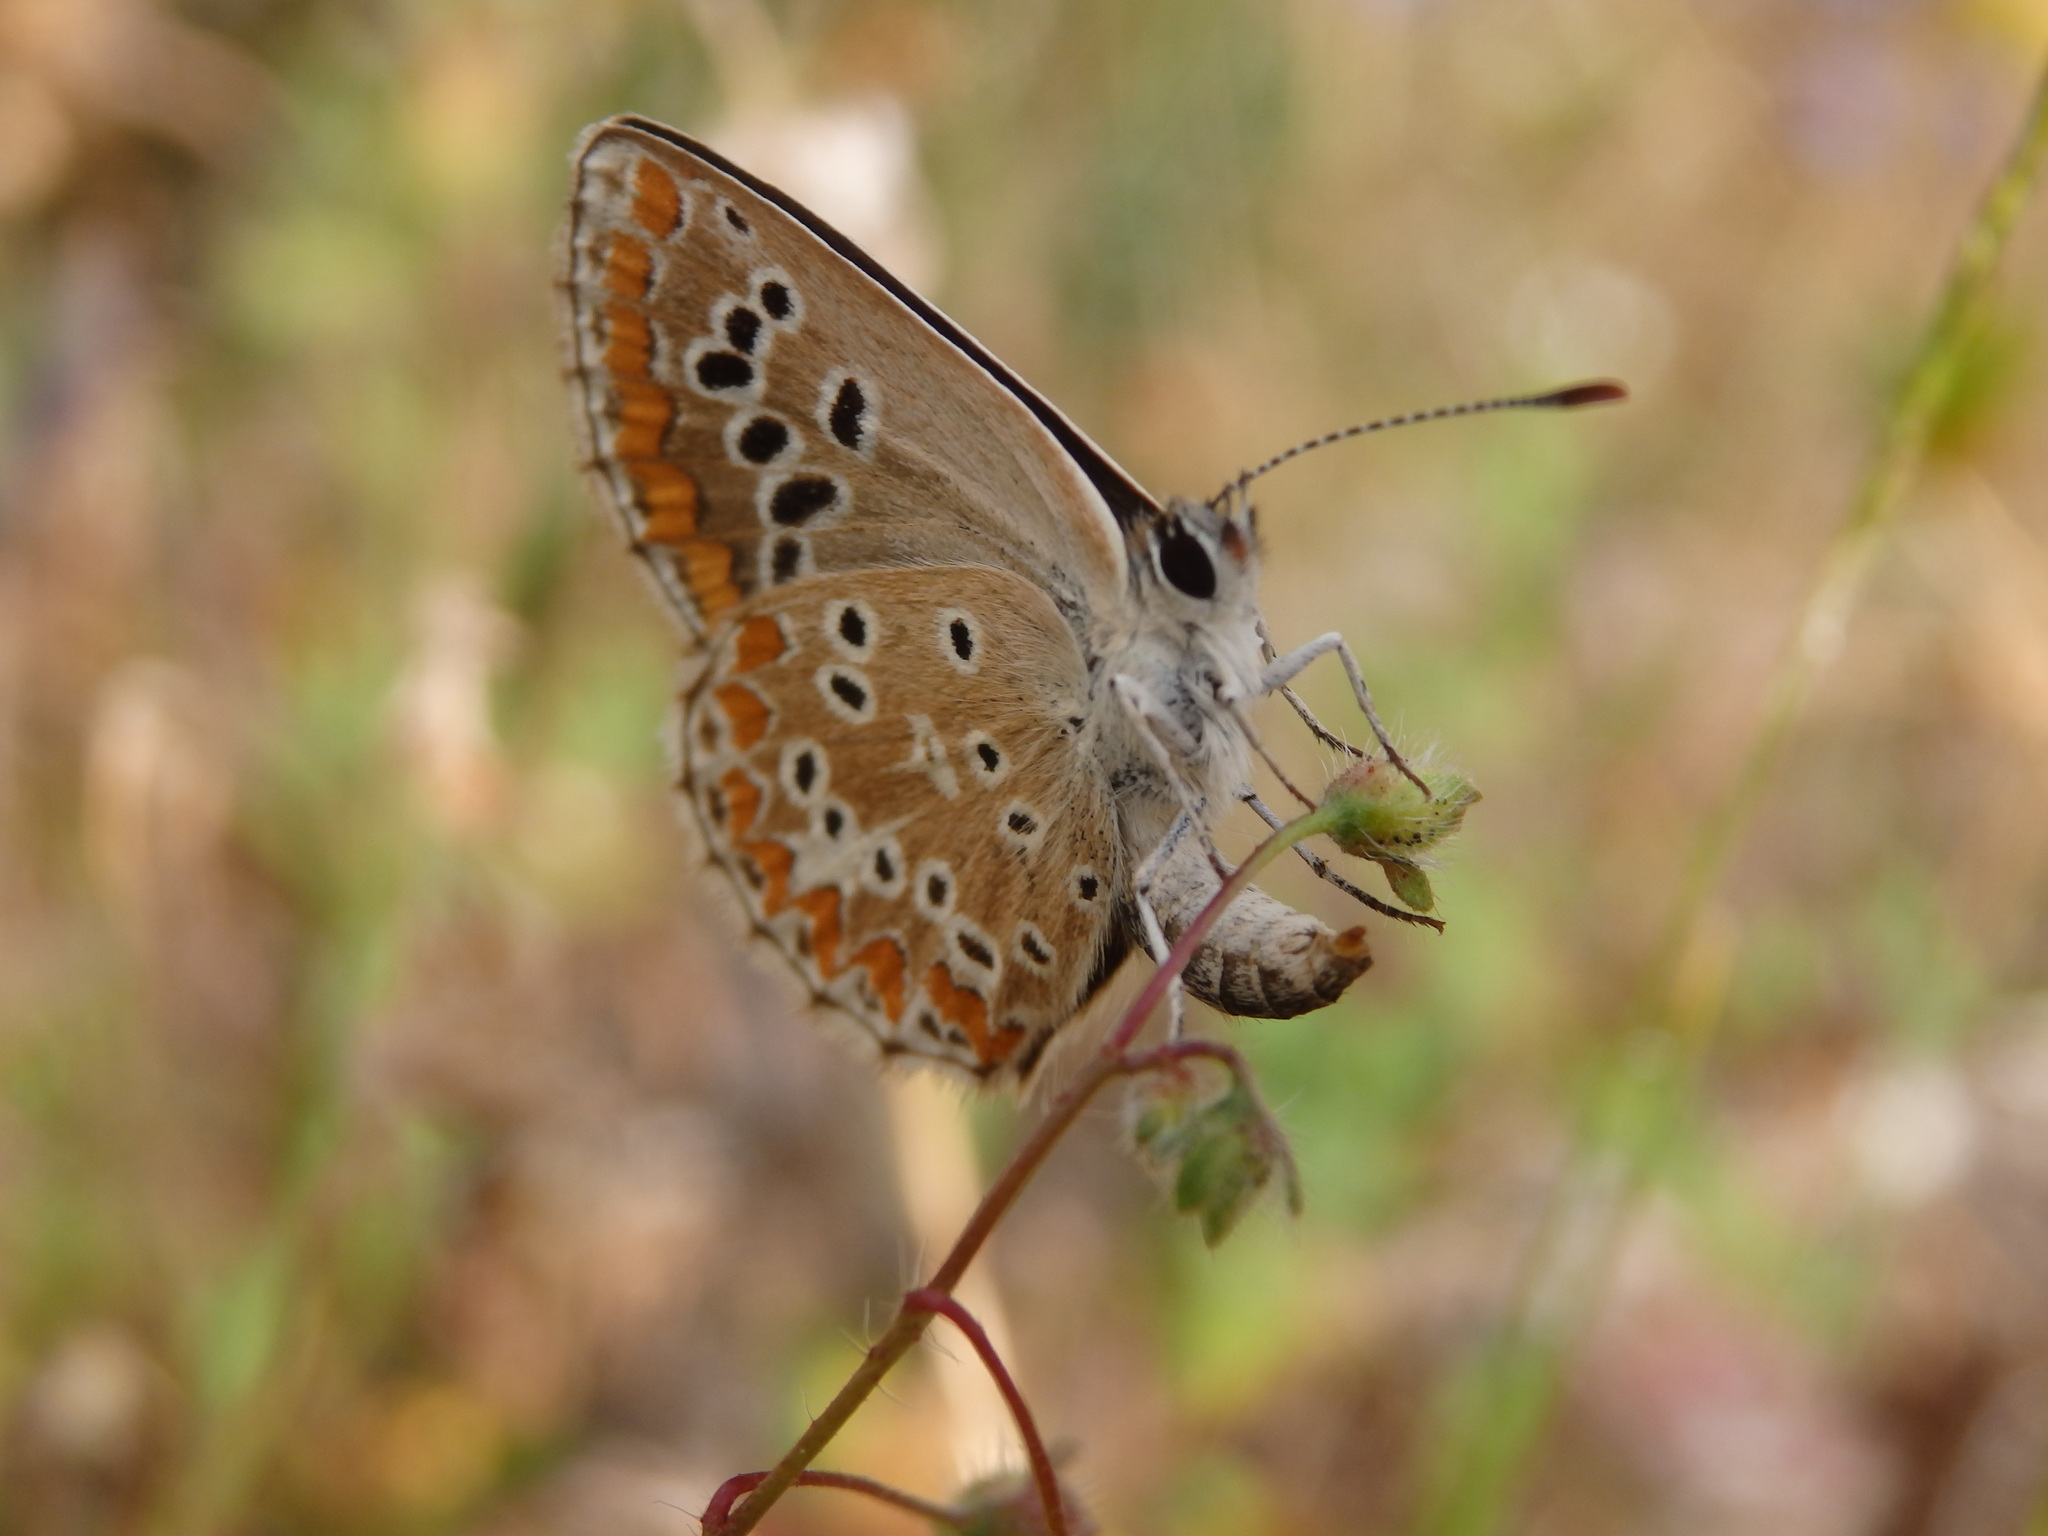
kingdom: Animalia
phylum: Arthropoda
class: Insecta
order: Lepidoptera
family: Lycaenidae
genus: Aricia
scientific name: Aricia cramera
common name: Eschscholtz´s brown  argus
